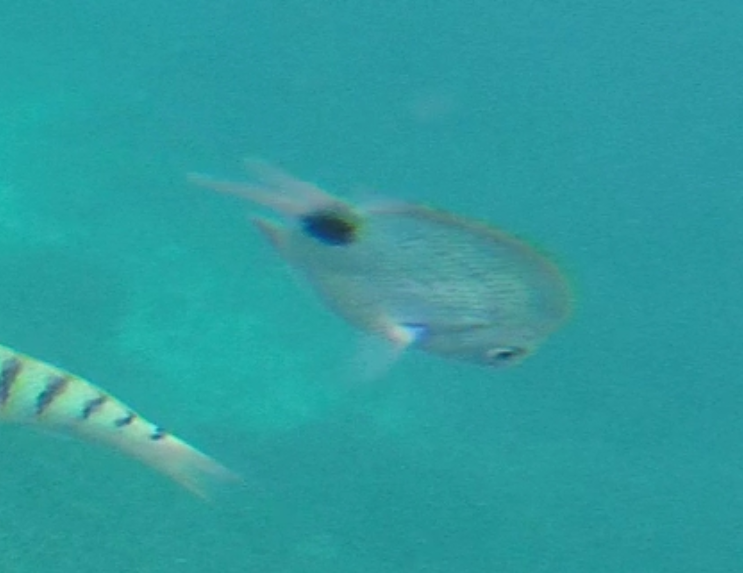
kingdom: Animalia
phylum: Chordata
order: Perciformes
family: Pomacentridae
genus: Abudefduf
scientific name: Abudefduf sparoides
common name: False-eye sergeant
